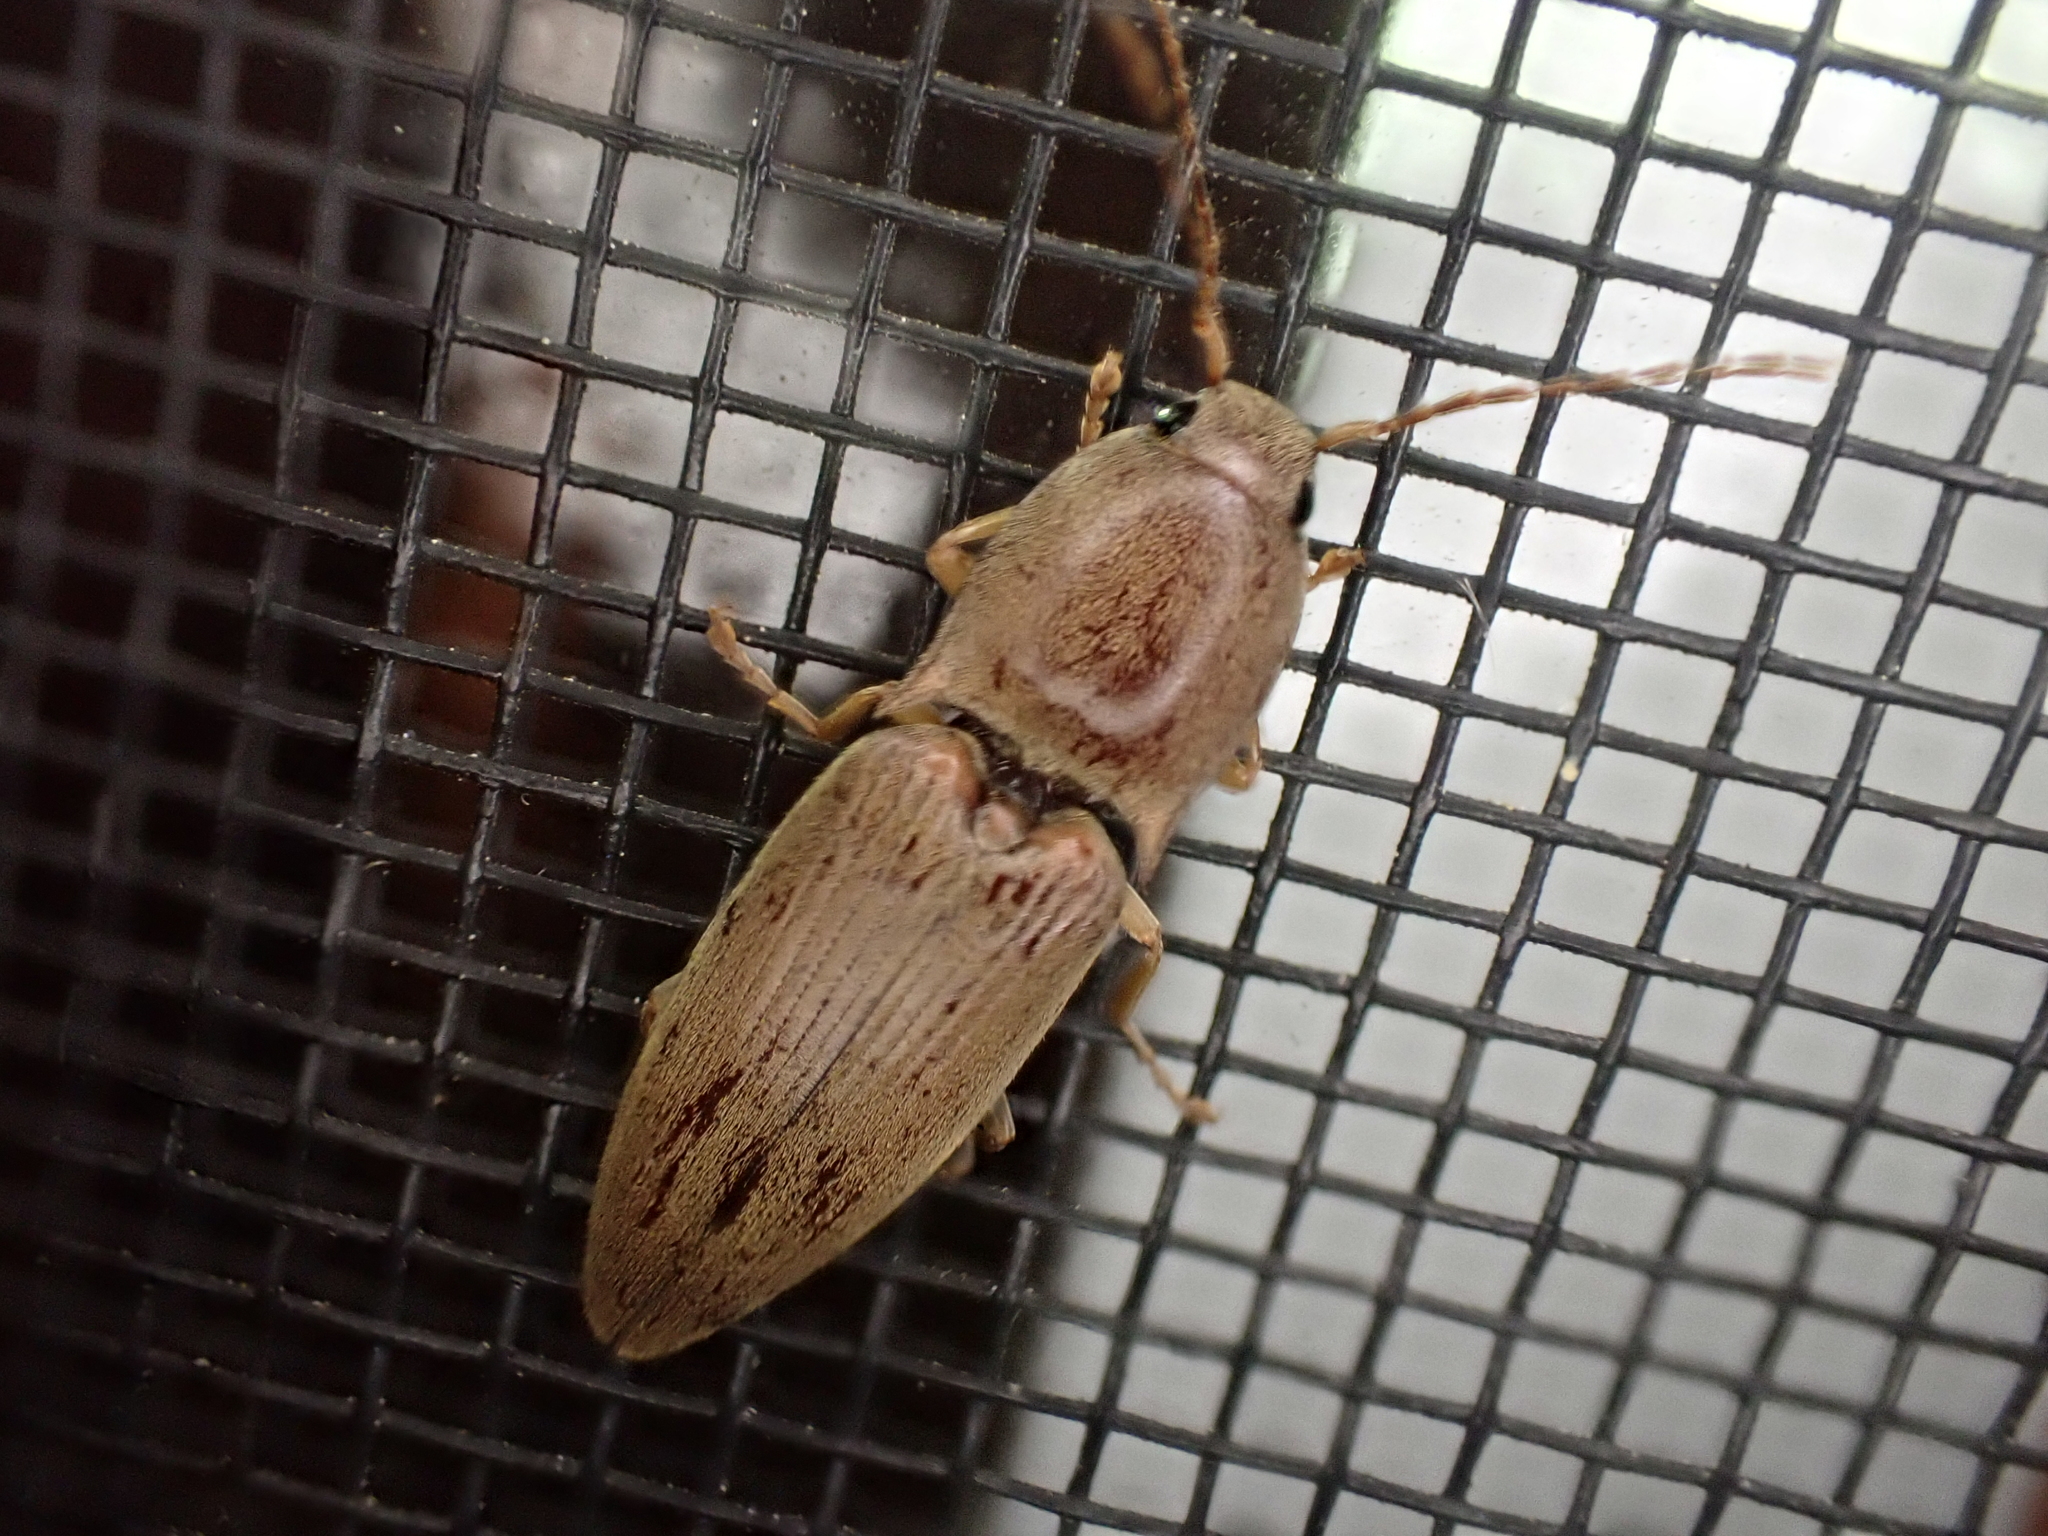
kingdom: Animalia
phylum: Arthropoda
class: Insecta
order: Coleoptera
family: Elateridae
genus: Monocrepidius
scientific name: Monocrepidius lividus
